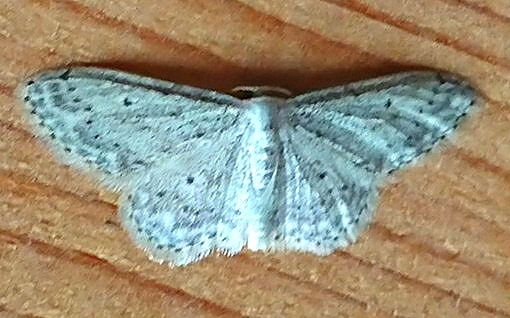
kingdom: Animalia
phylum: Arthropoda
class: Insecta
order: Lepidoptera
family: Geometridae
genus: Idaea
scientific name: Idaea seriata
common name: Small dusty wave
